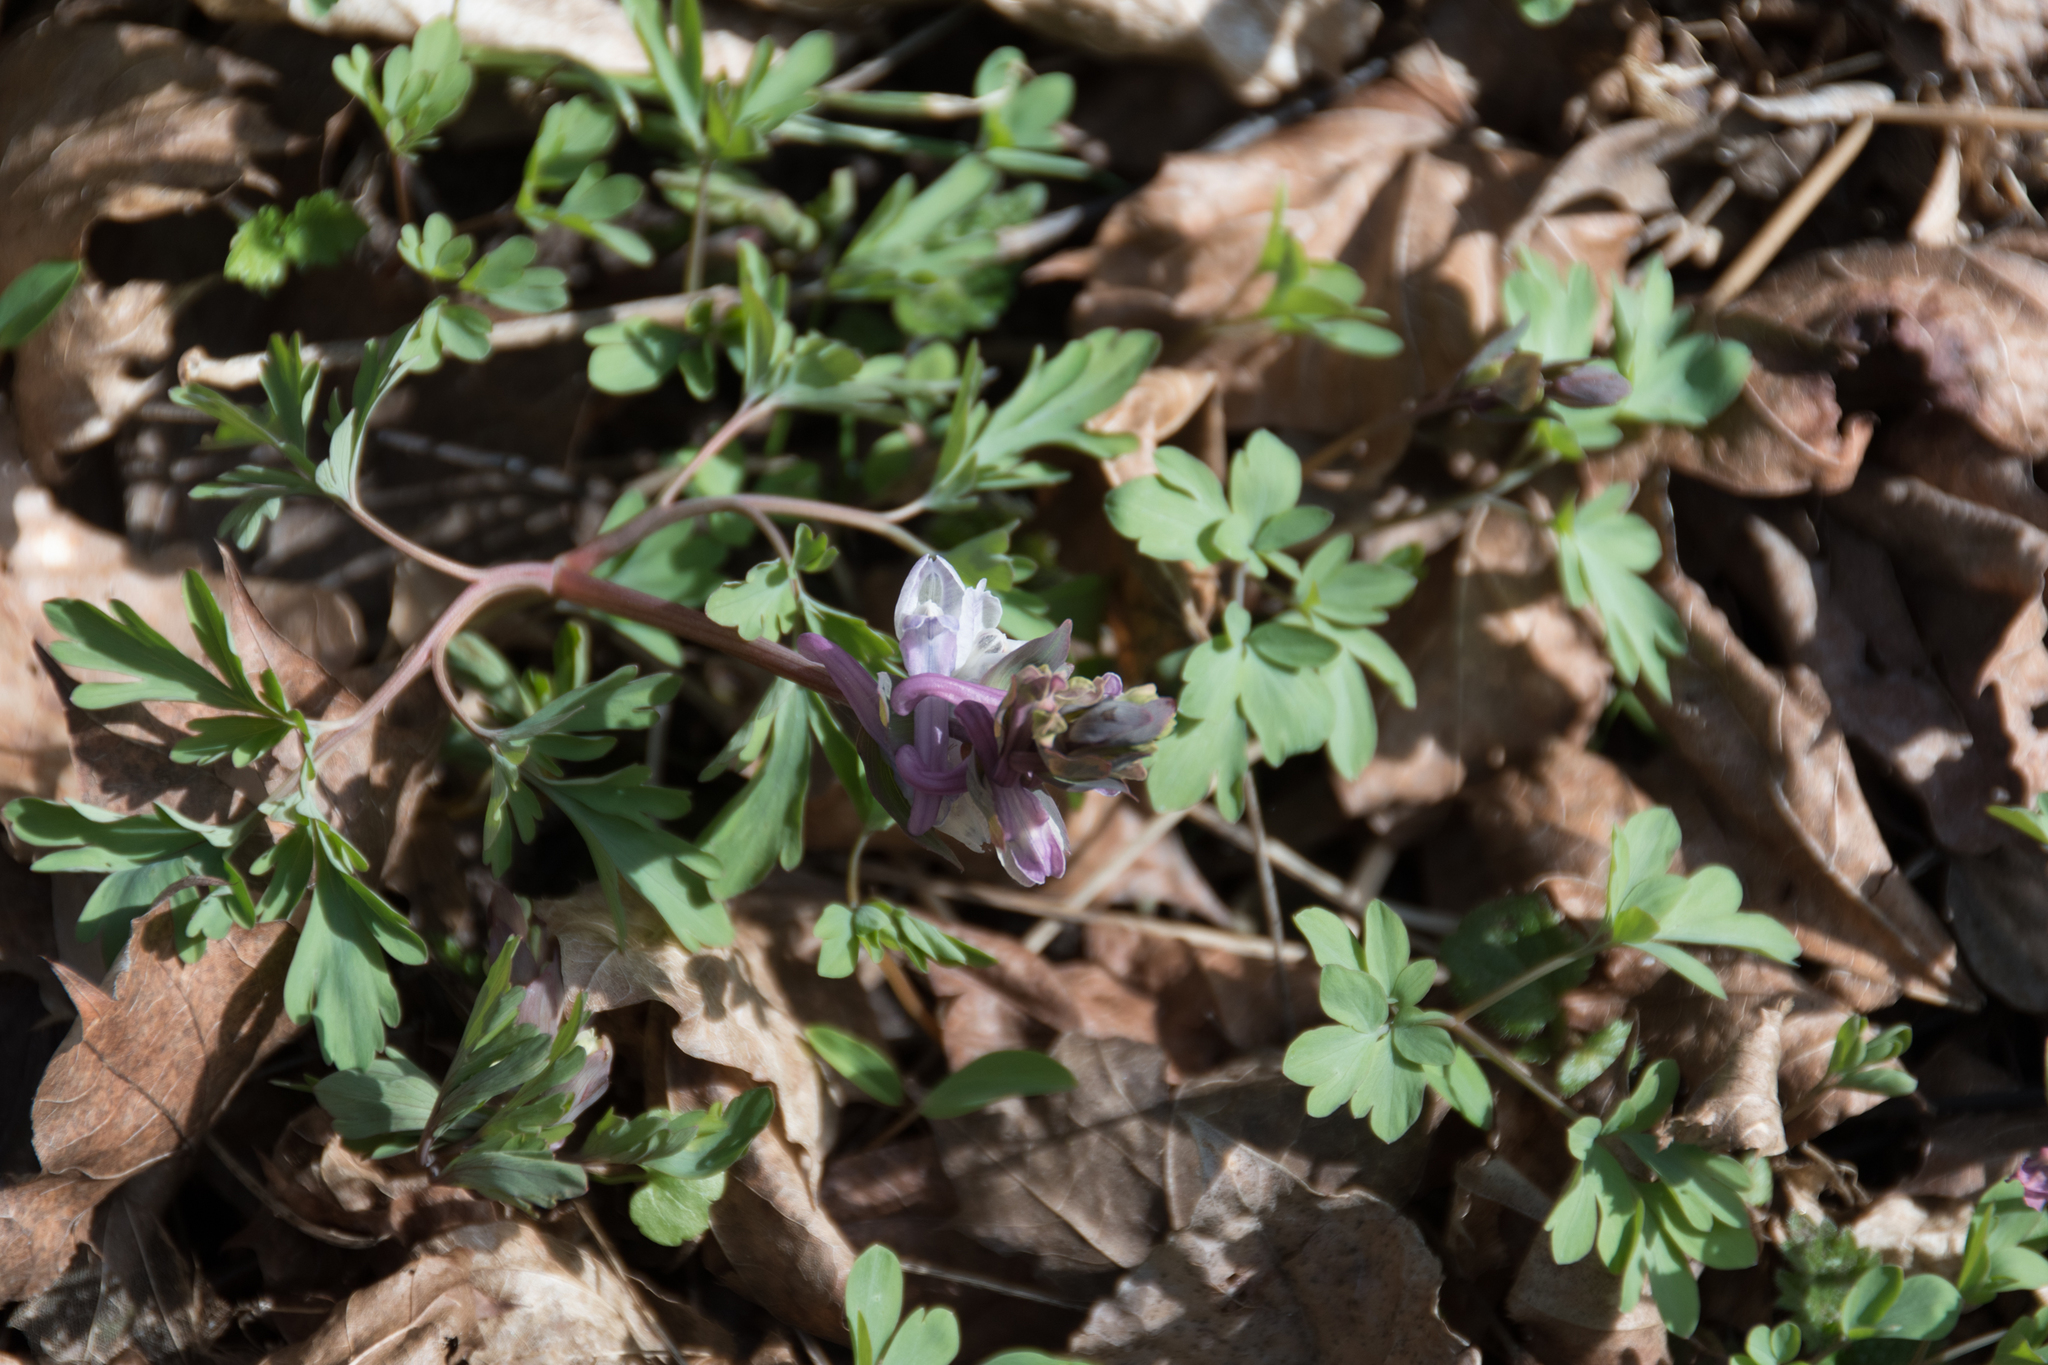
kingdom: Plantae
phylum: Tracheophyta
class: Magnoliopsida
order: Ranunculales
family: Papaveraceae
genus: Corydalis
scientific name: Corydalis cava
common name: Hollowroot
